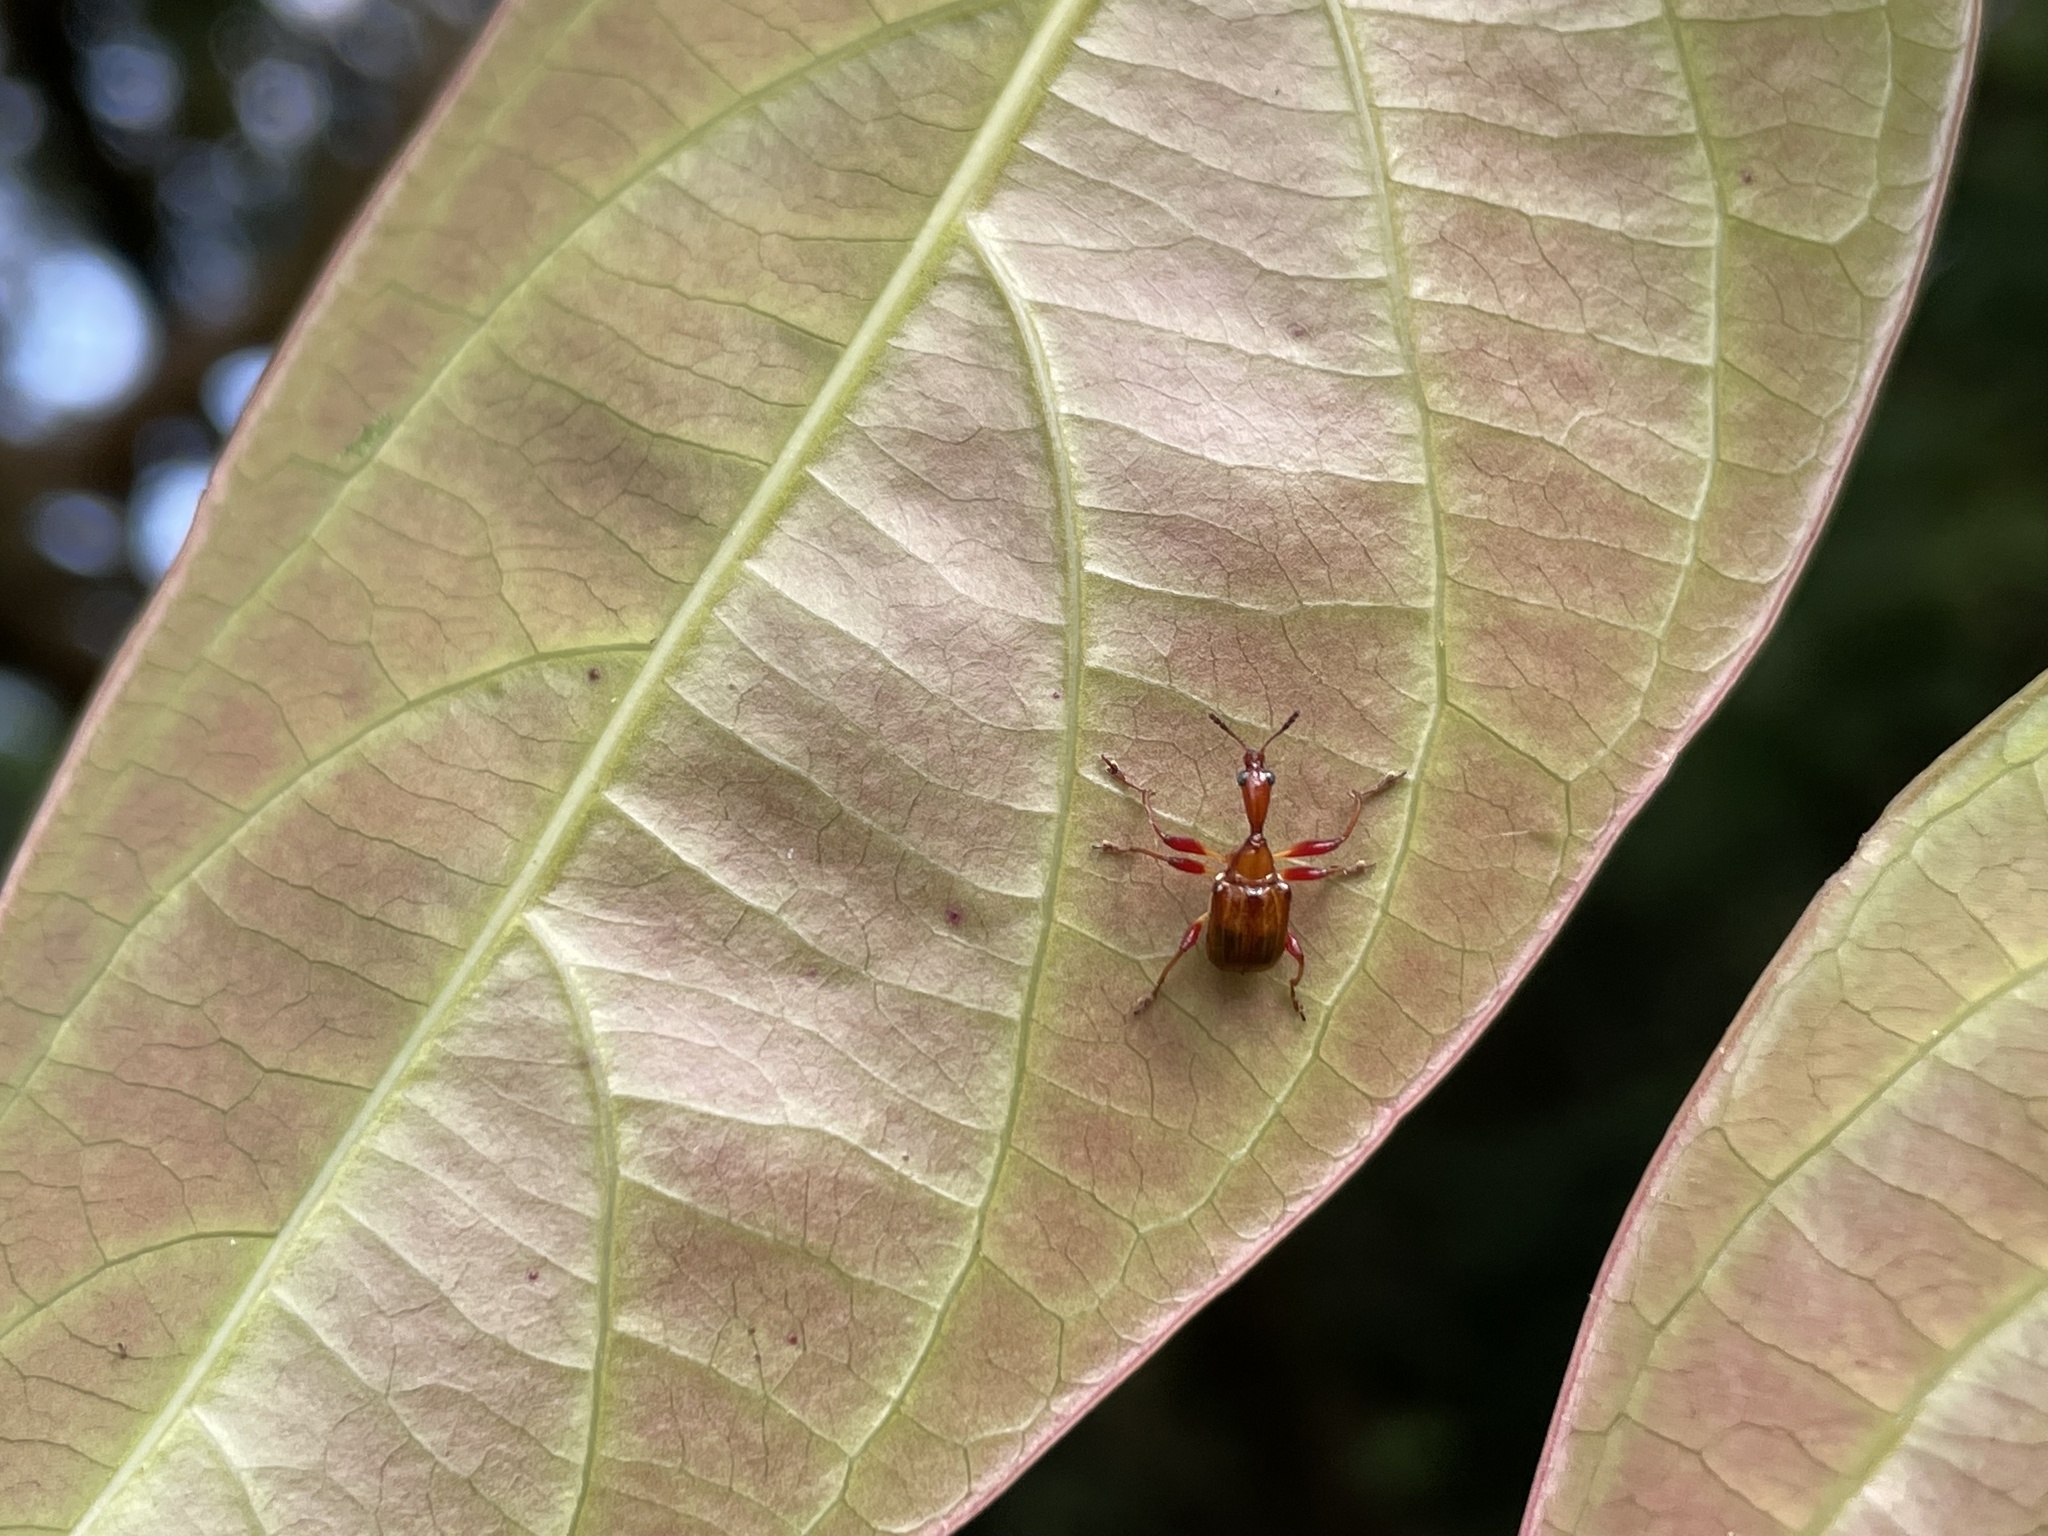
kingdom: Animalia
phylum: Arthropoda
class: Insecta
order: Coleoptera
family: Attelabidae
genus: Leptapoderus
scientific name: Leptapoderus
